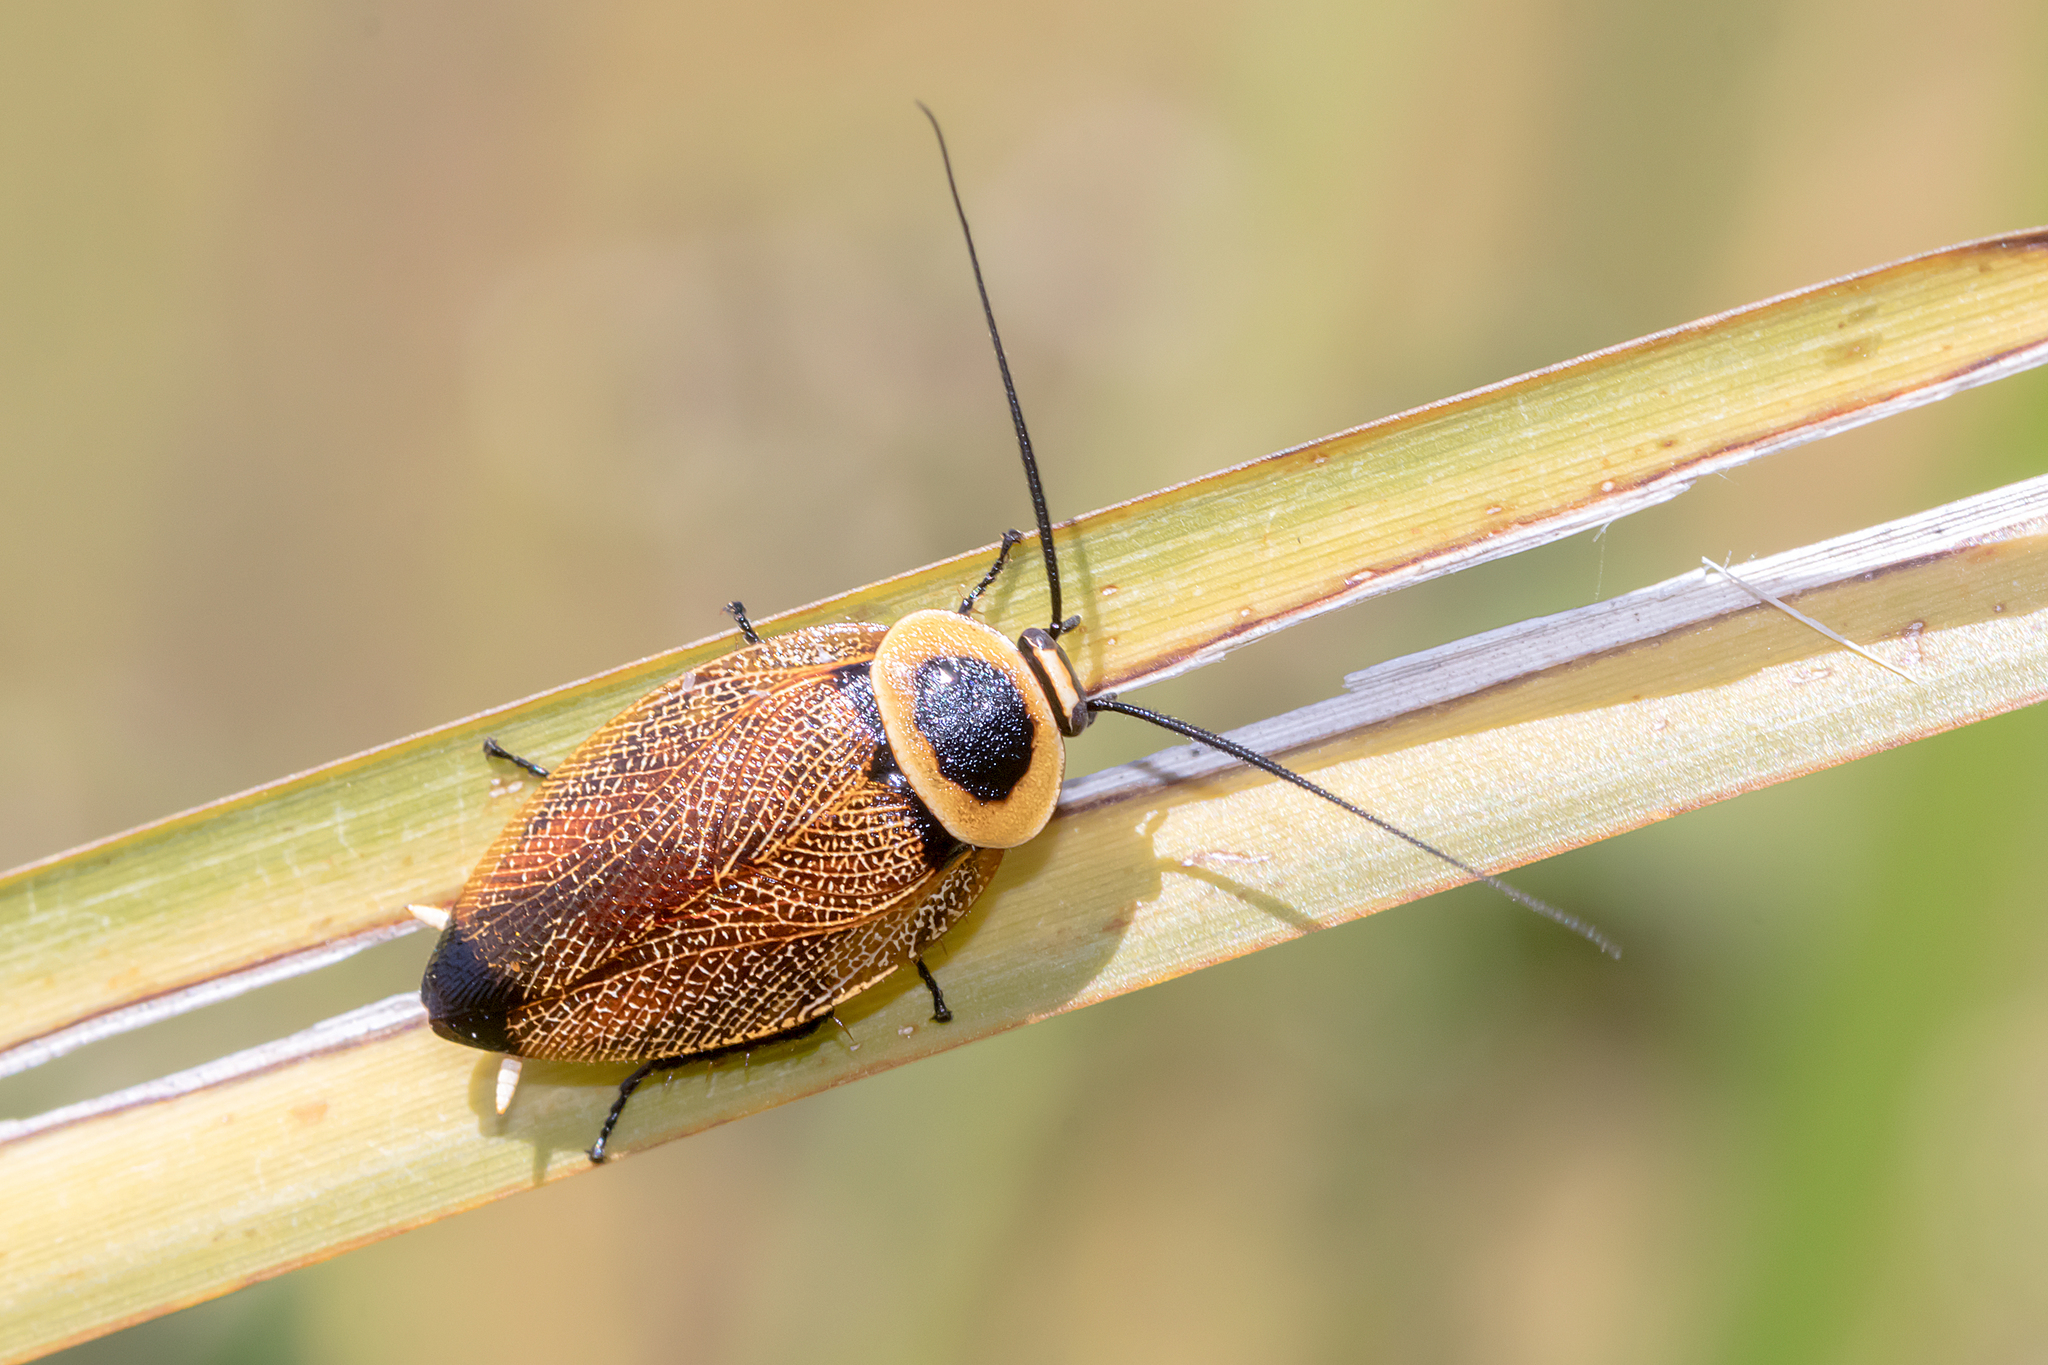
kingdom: Animalia
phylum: Arthropoda
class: Insecta
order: Blattodea
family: Ectobiidae
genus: Ellipsidion
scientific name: Ellipsidion australe
